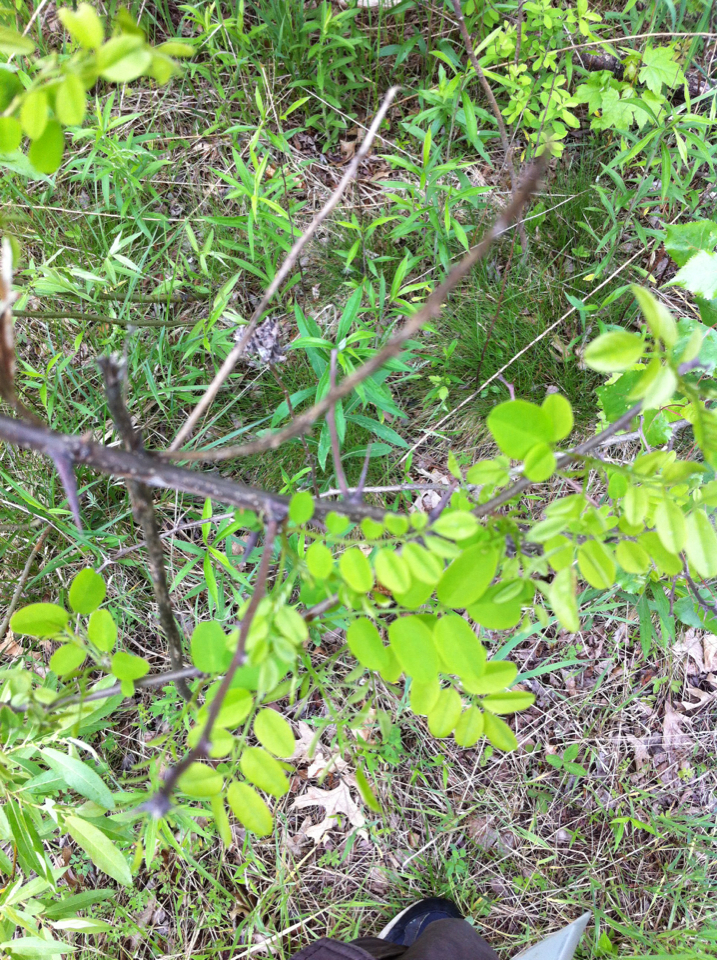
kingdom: Plantae
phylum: Tracheophyta
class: Magnoliopsida
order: Fabales
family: Fabaceae
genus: Robinia
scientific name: Robinia pseudoacacia
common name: Black locust
